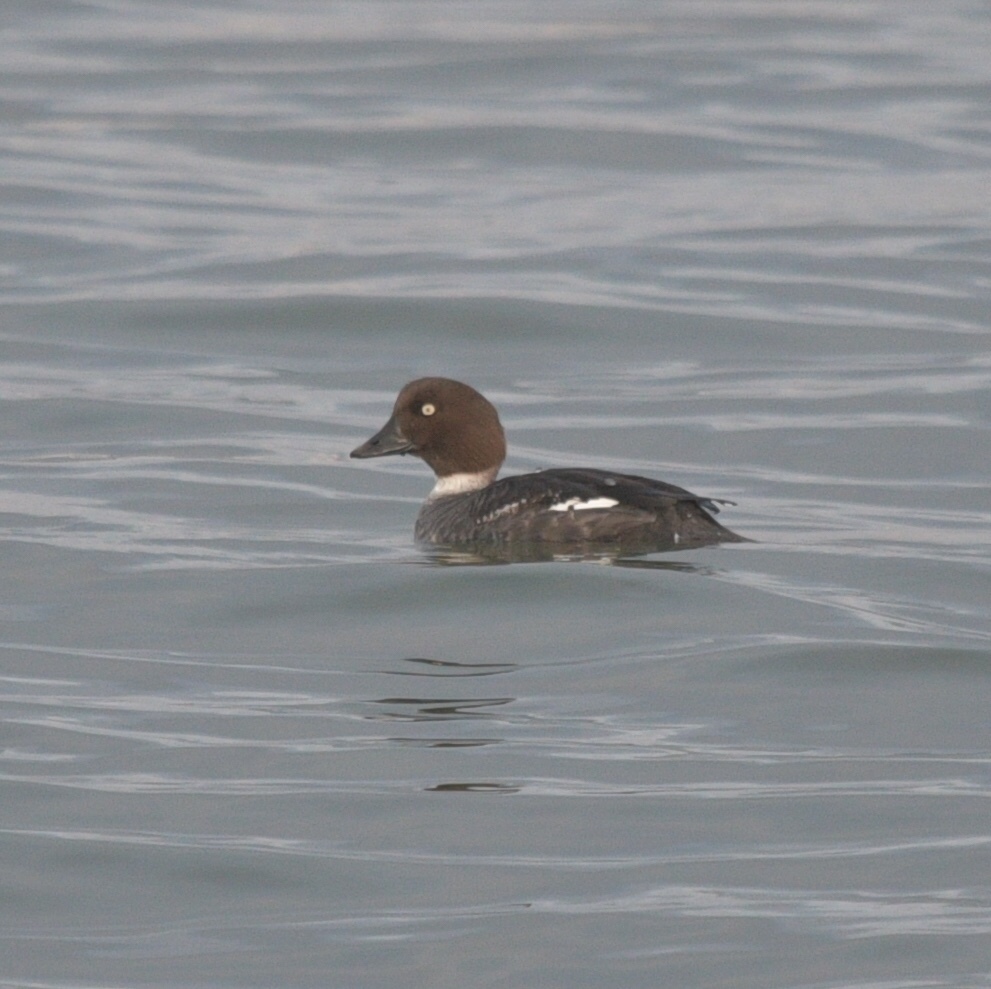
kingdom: Animalia
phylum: Chordata
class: Aves
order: Anseriformes
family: Anatidae
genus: Bucephala
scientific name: Bucephala clangula
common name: Common goldeneye
